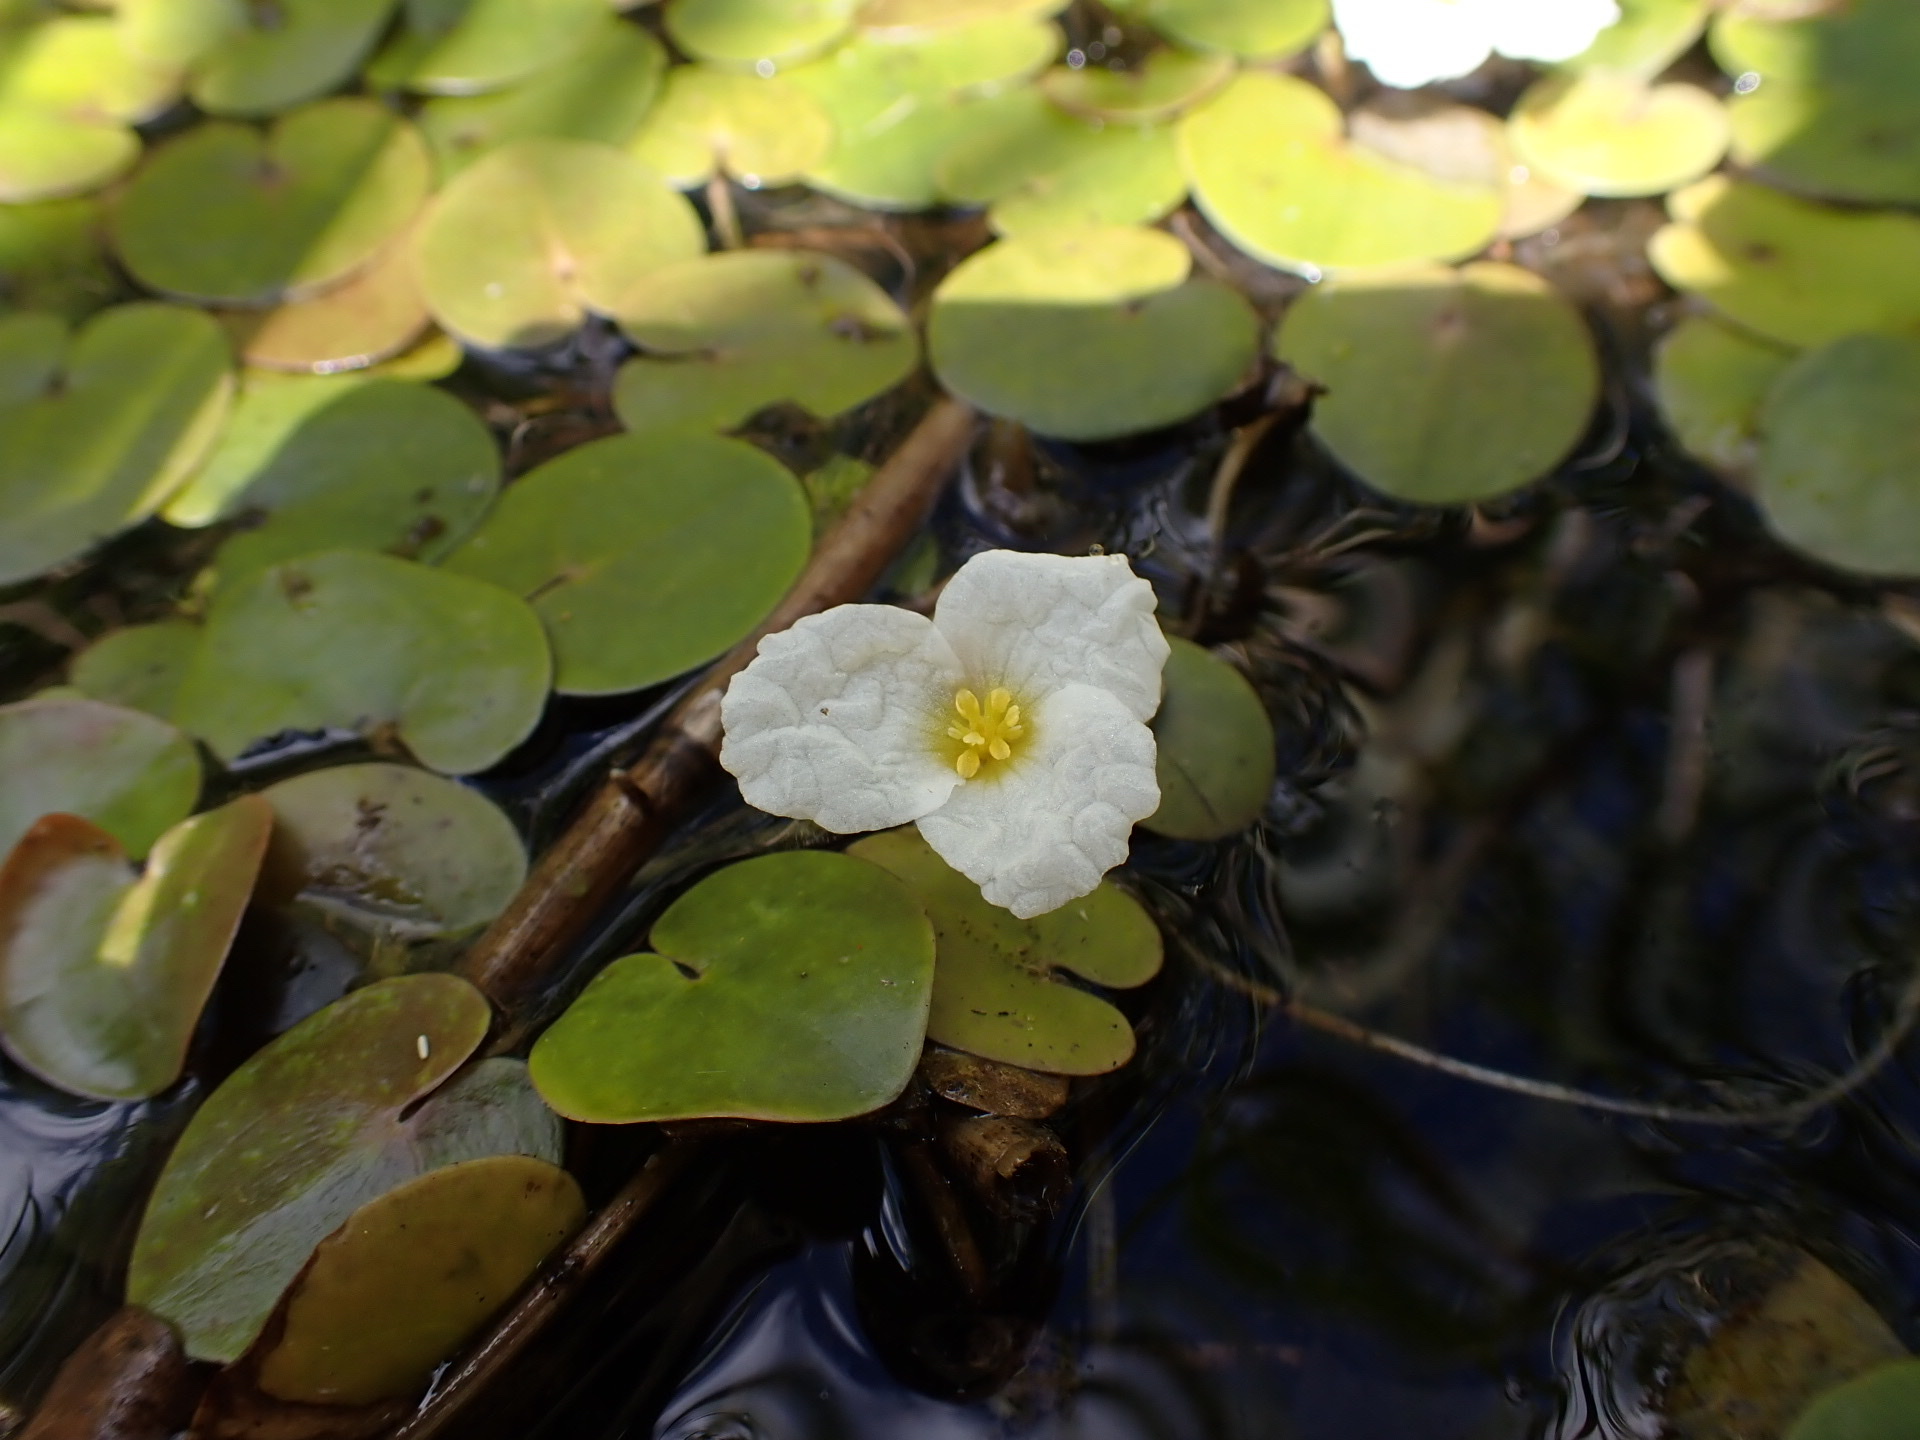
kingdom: Plantae
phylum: Tracheophyta
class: Liliopsida
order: Alismatales
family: Hydrocharitaceae
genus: Hydrocharis
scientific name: Hydrocharis morsus-ranae
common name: Frogbit
